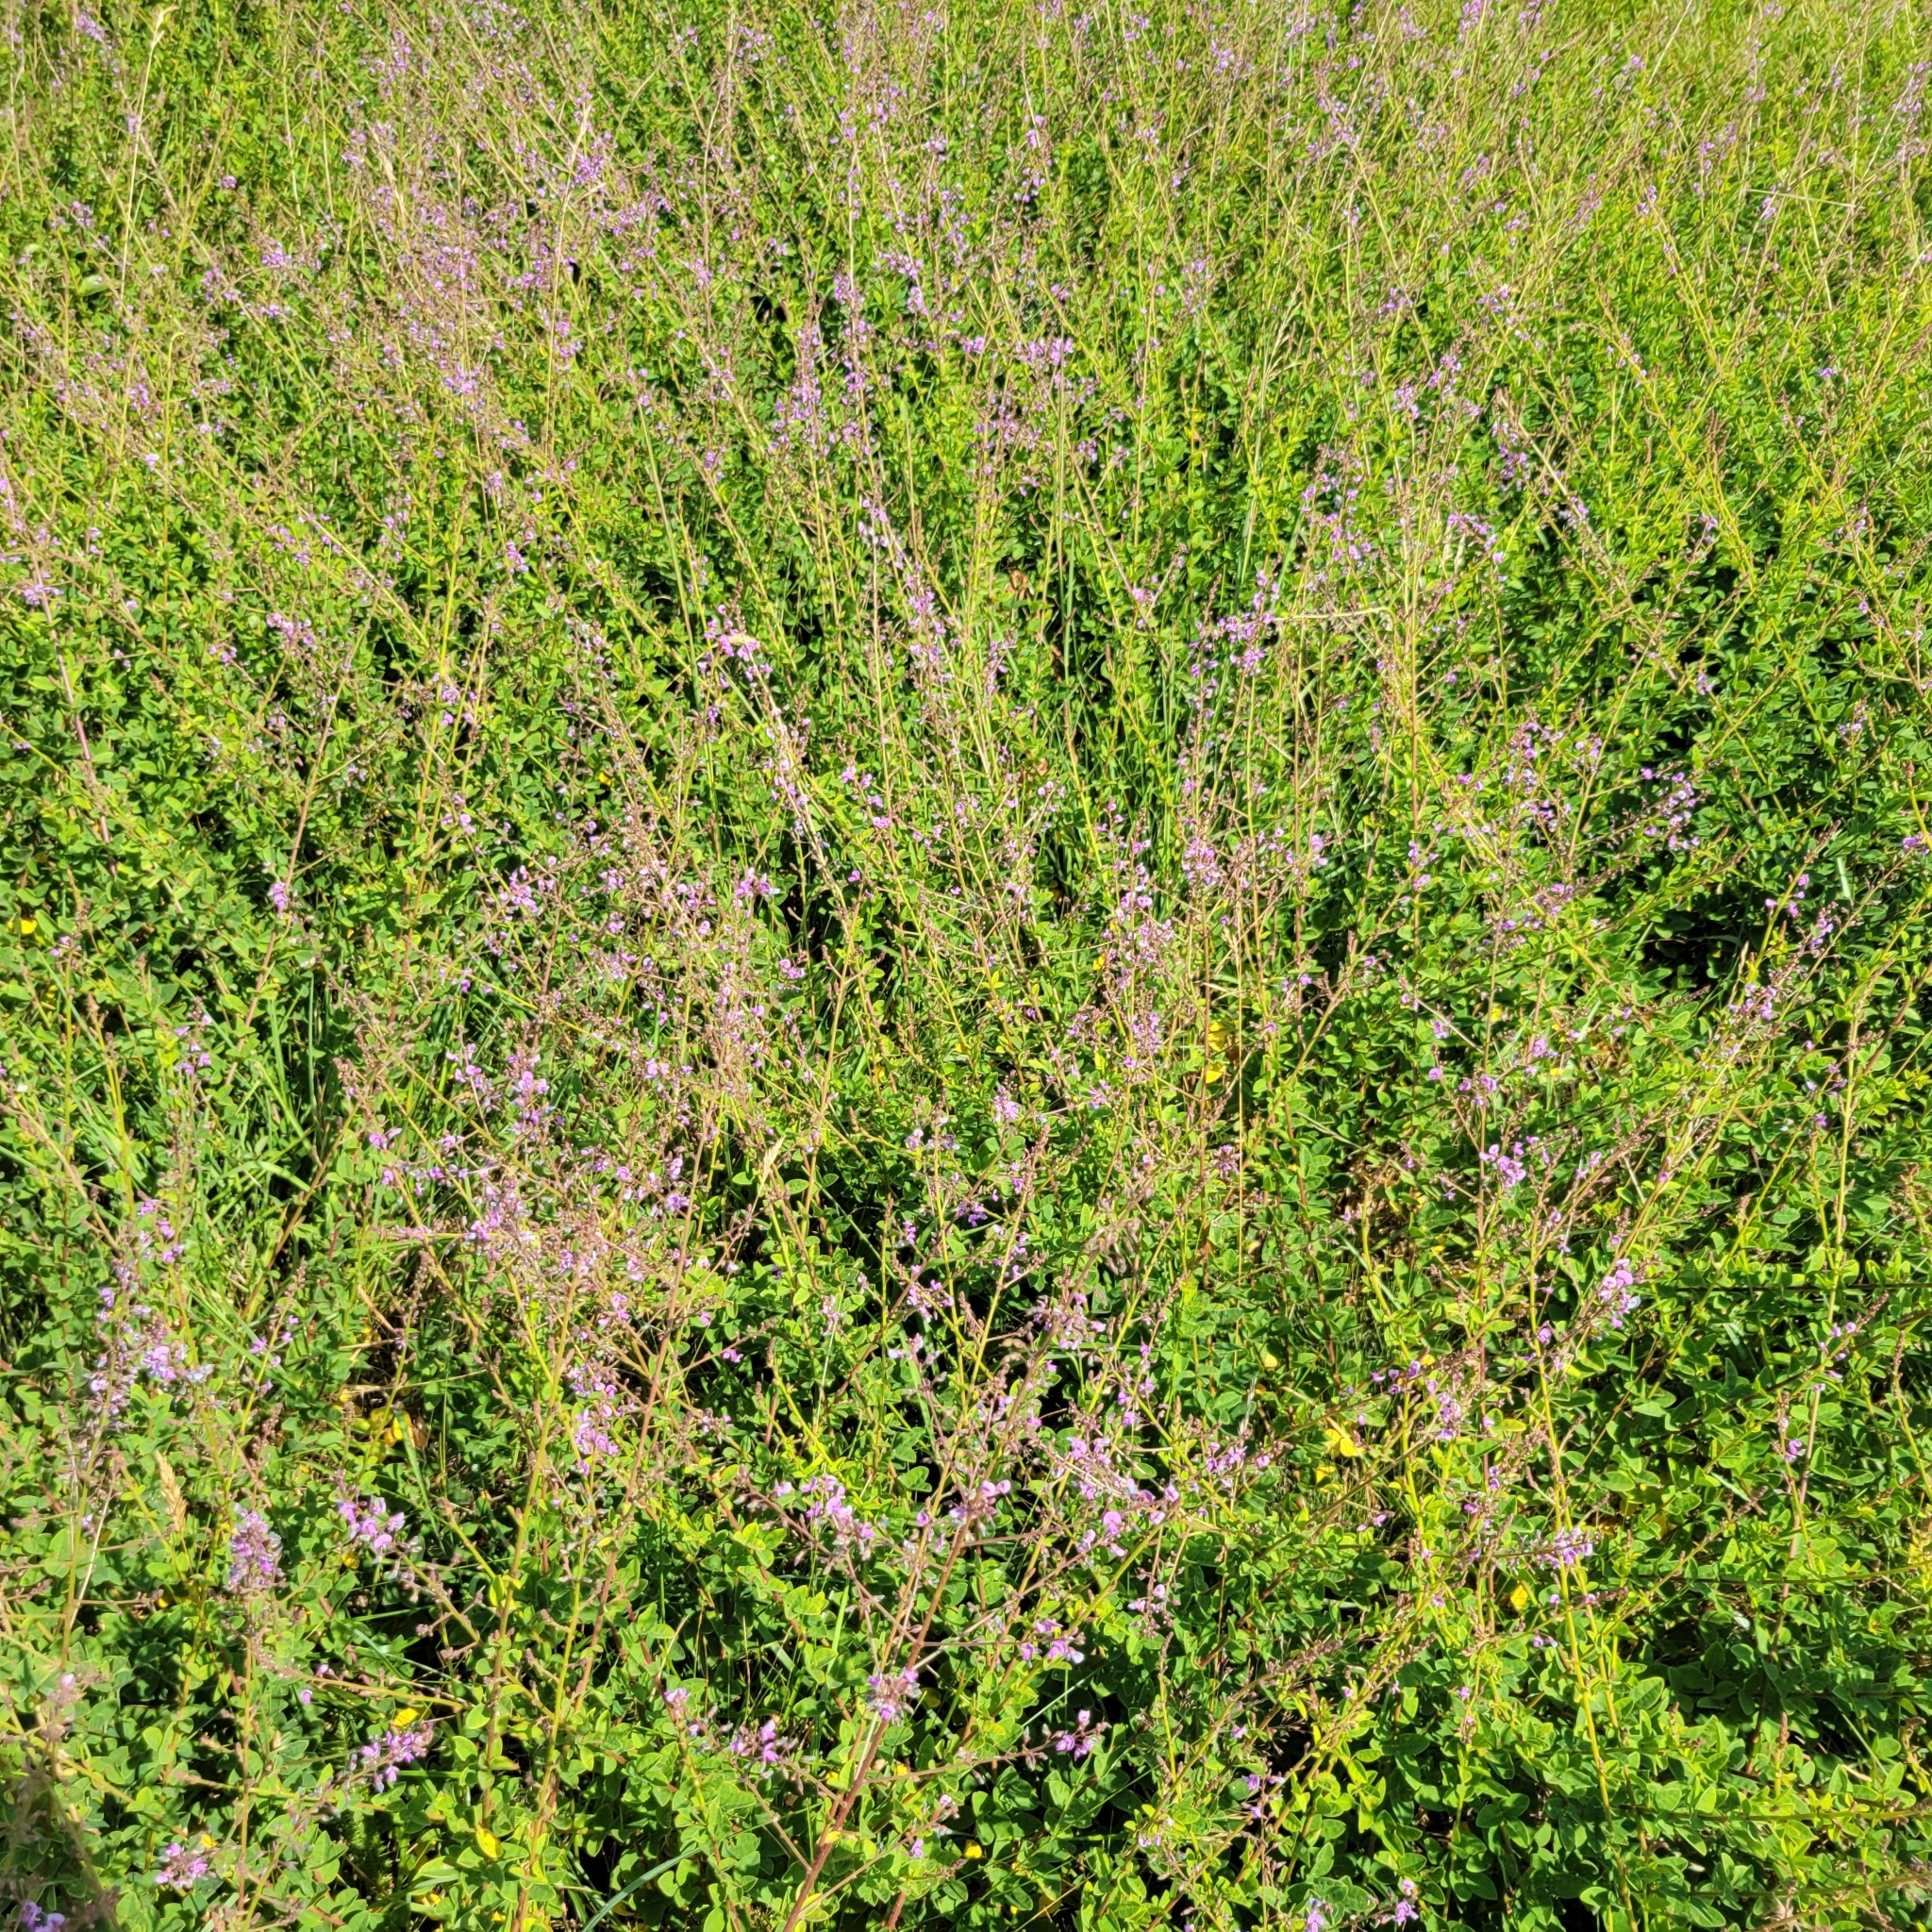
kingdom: Plantae
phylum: Tracheophyta
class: Magnoliopsida
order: Fabales
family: Fabaceae
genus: Desmodium
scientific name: Desmodium ciliare
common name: Hairy small-leaf ticktrefoil
